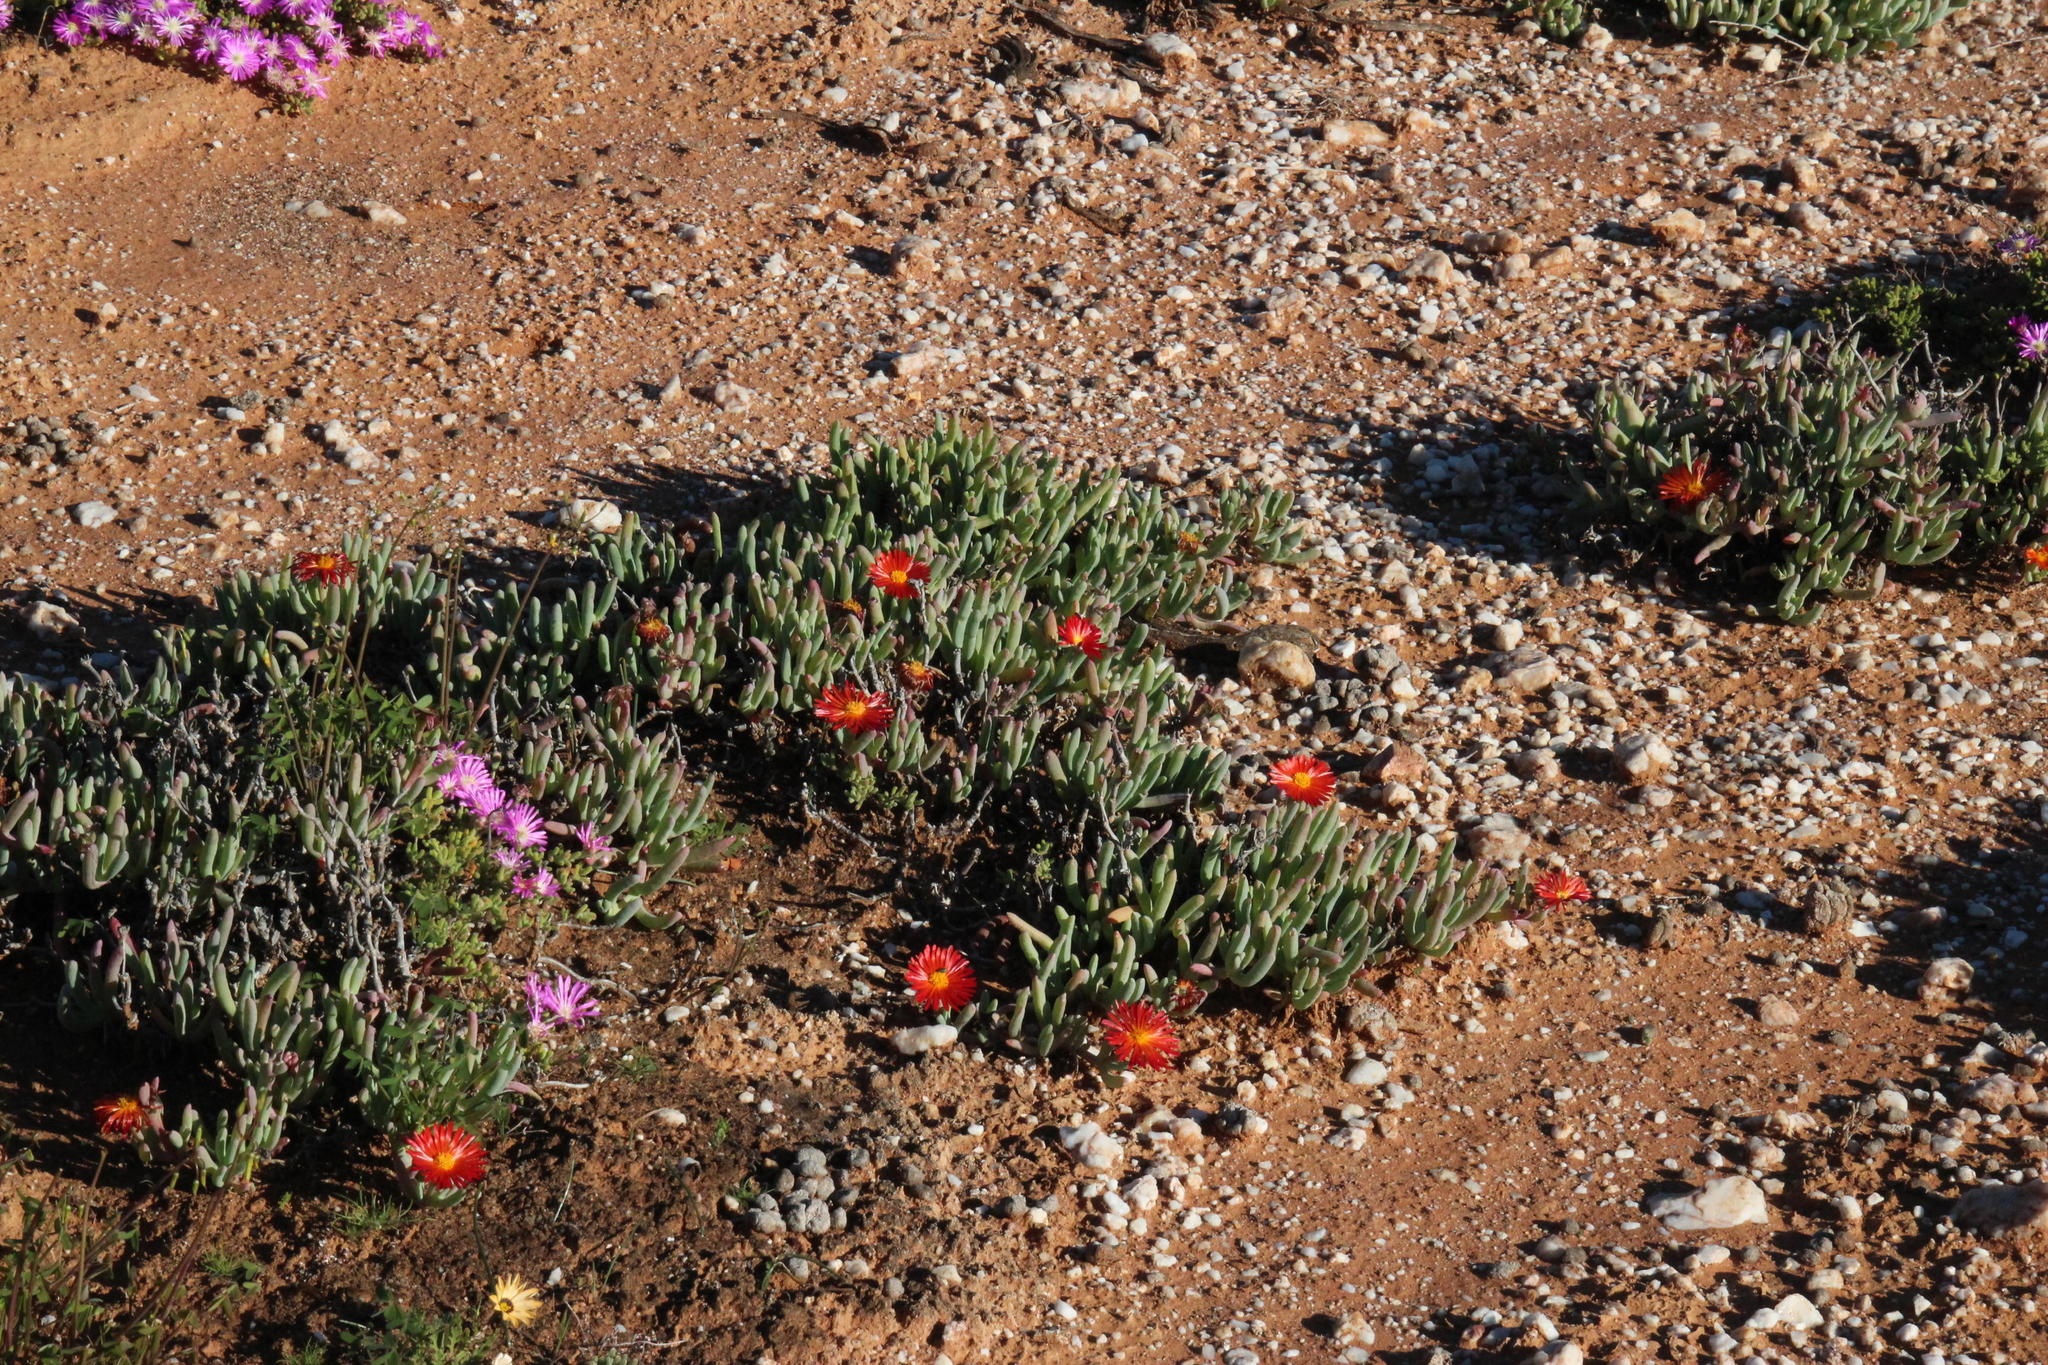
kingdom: Plantae
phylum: Tracheophyta
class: Magnoliopsida
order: Caryophyllales
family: Aizoaceae
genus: Malephora
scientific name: Malephora purpureocrocea
